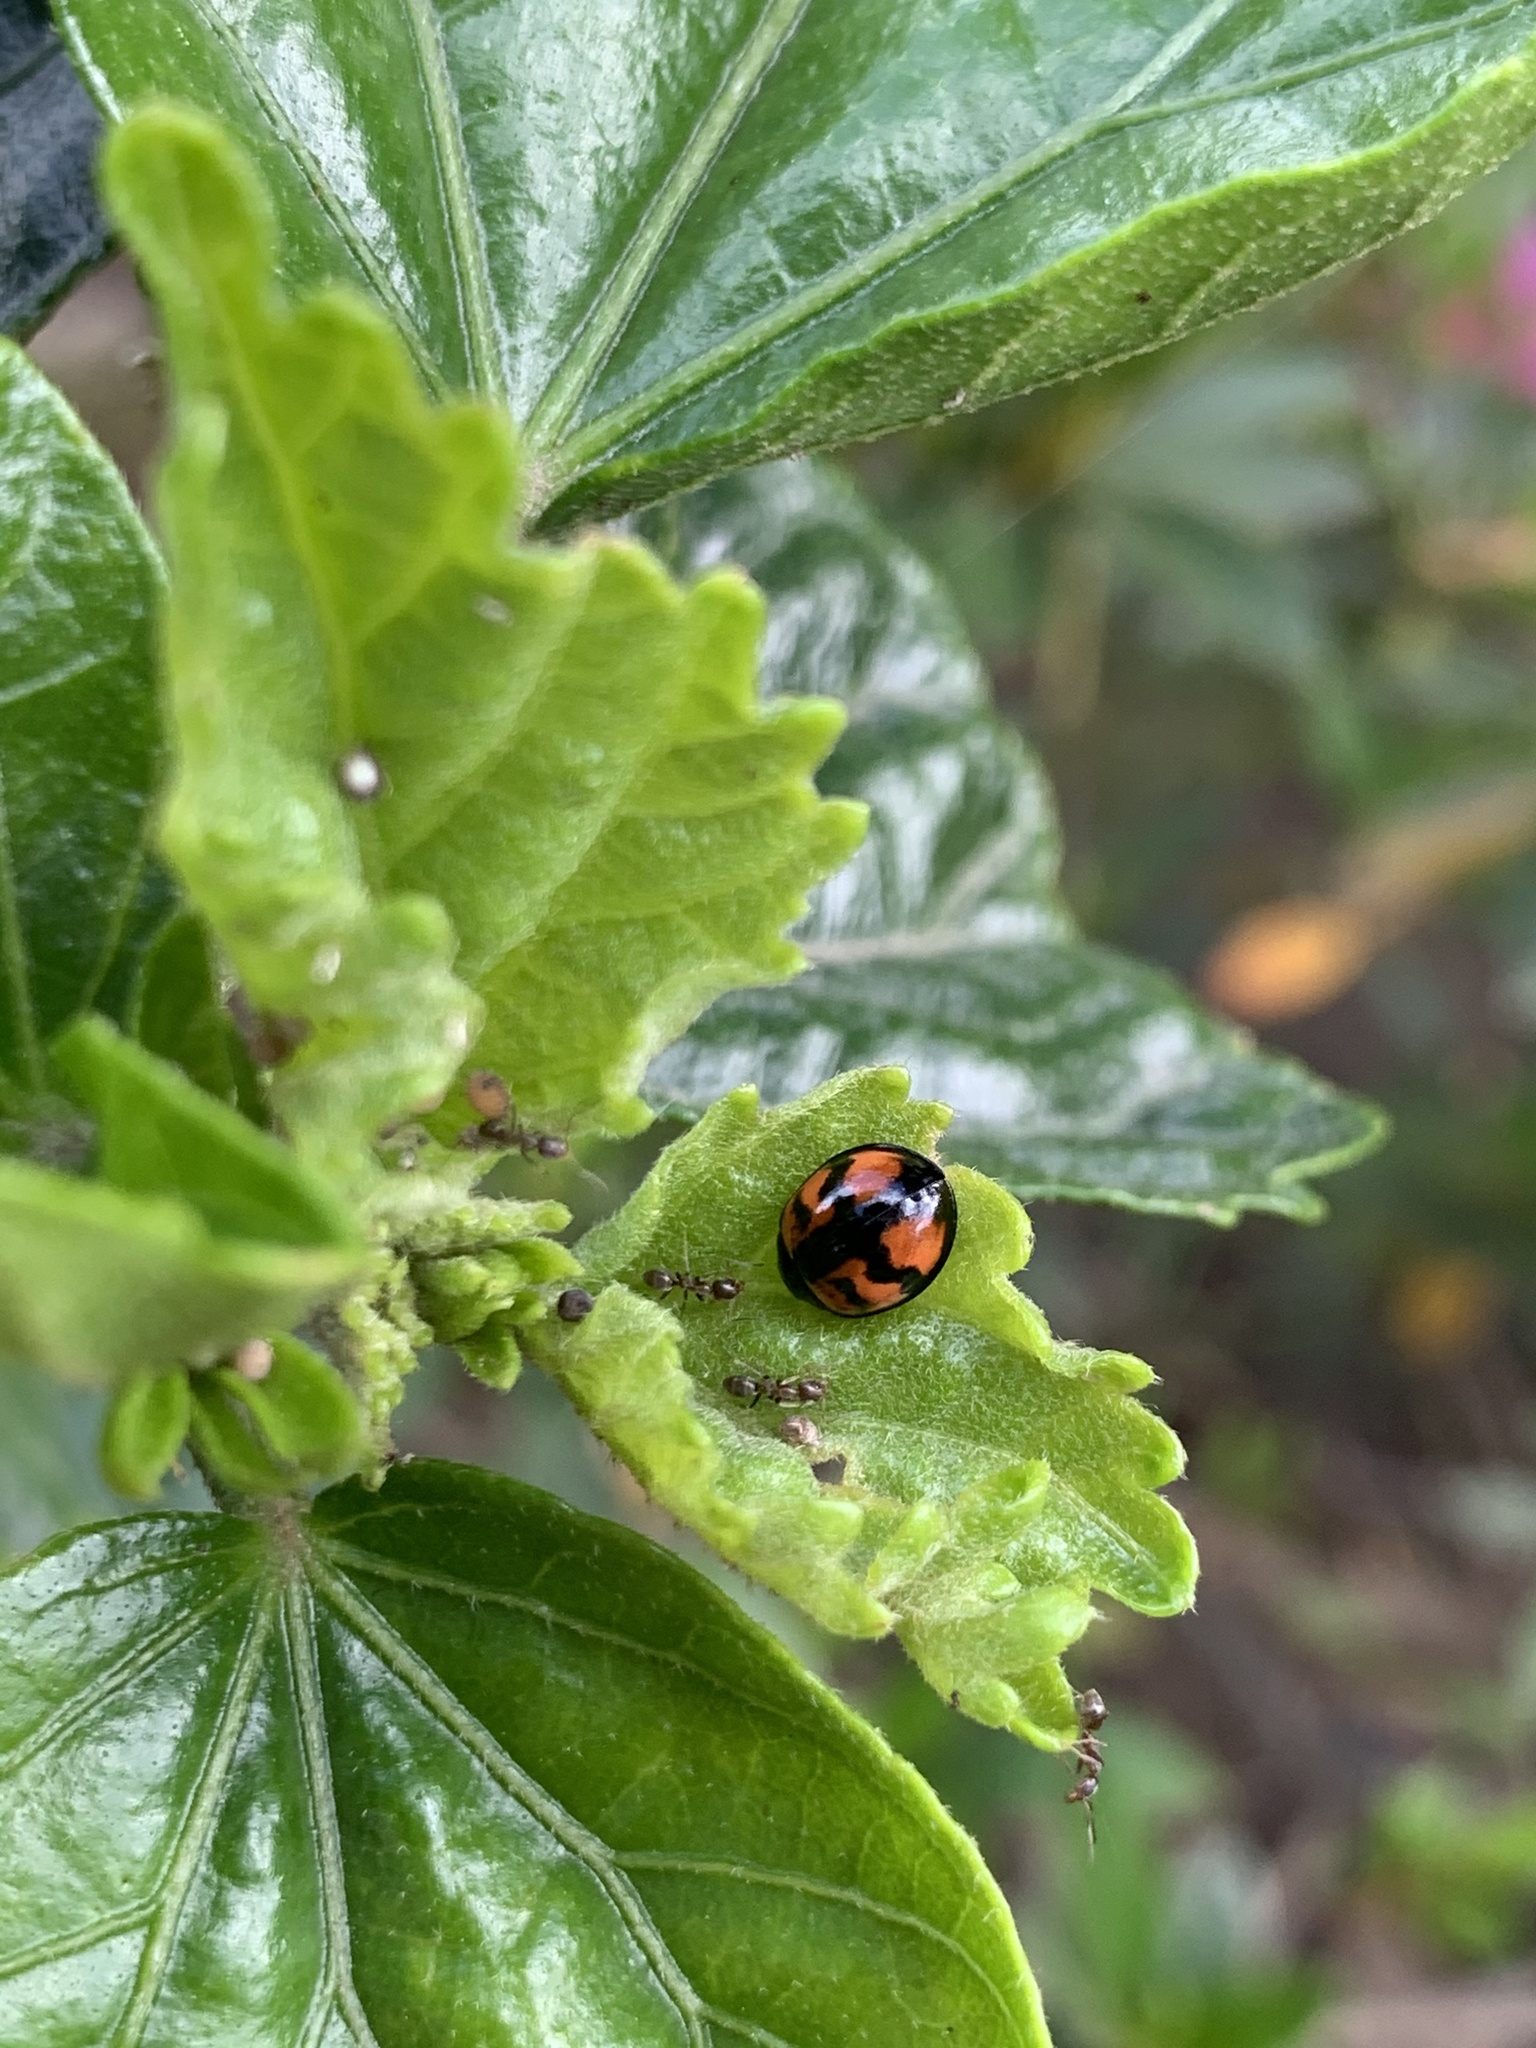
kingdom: Animalia
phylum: Arthropoda
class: Insecta
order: Coleoptera
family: Coccinellidae
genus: Cheilomenes
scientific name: Cheilomenes sexmaculata
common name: Ladybird beetle
